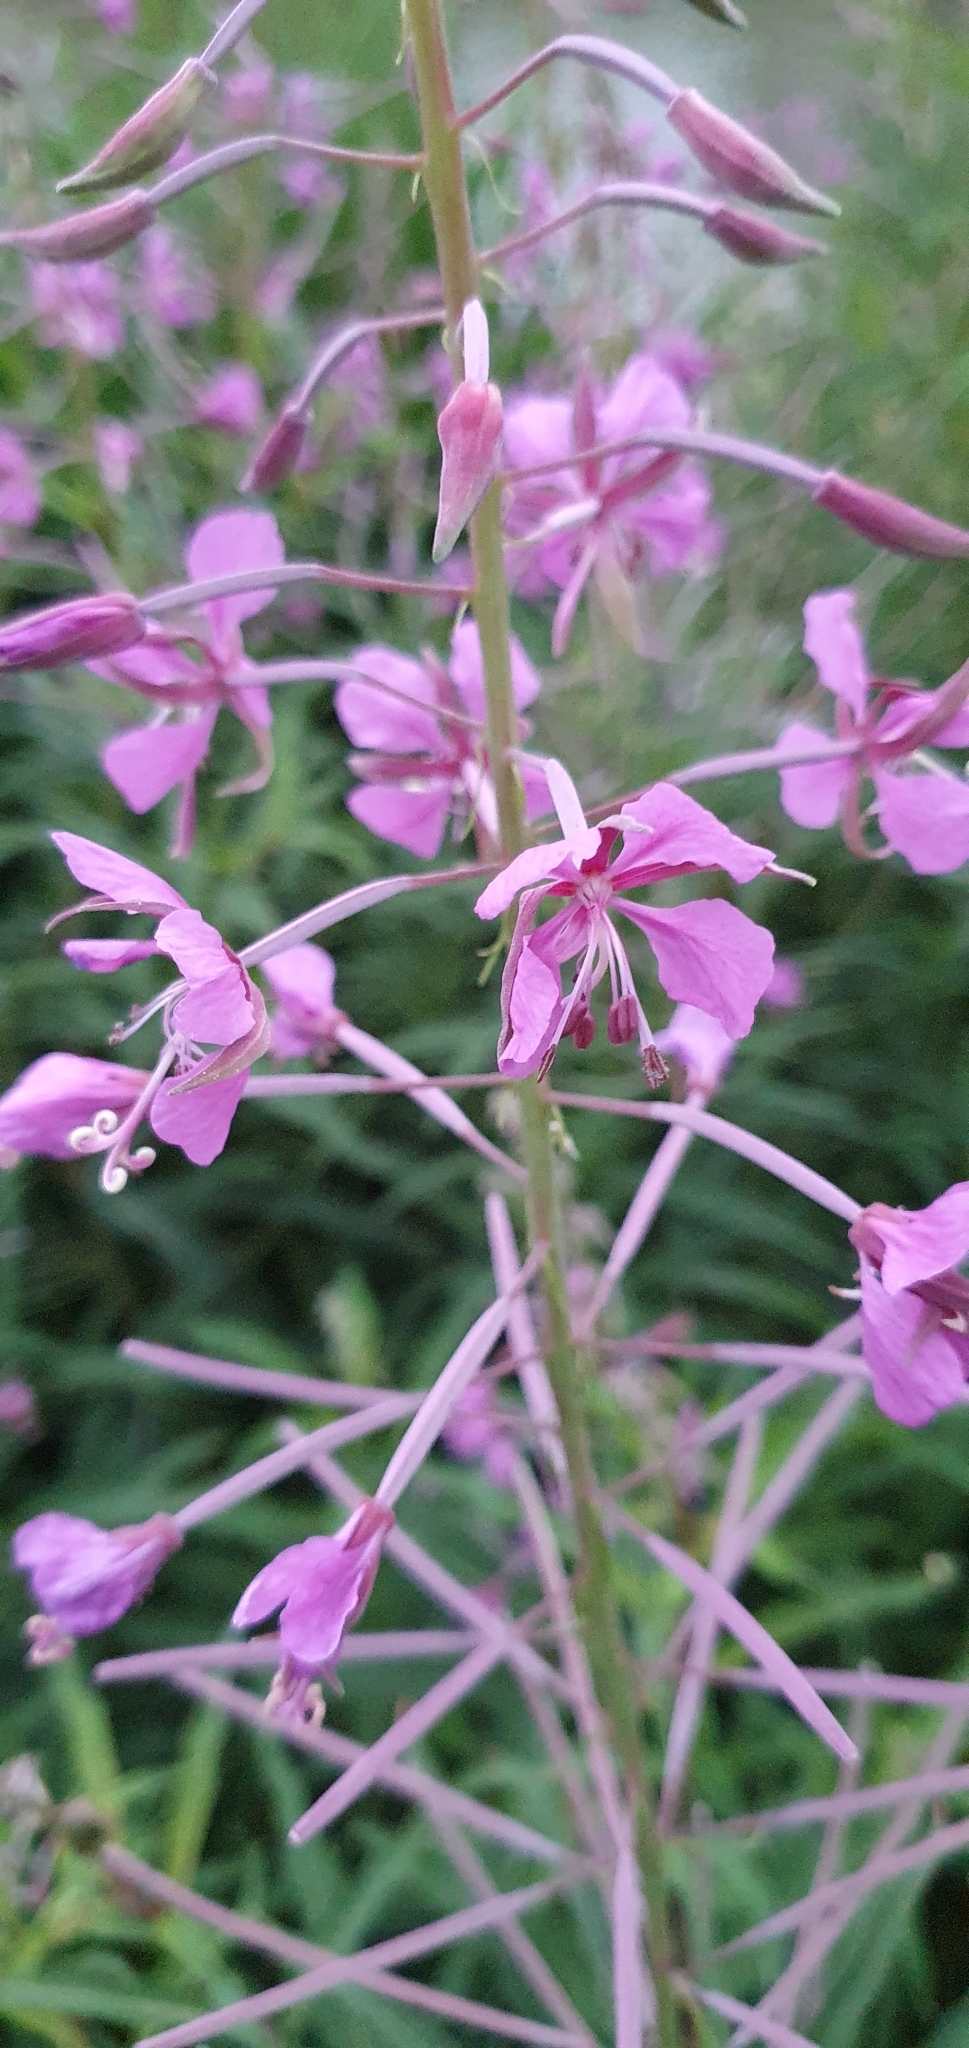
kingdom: Plantae
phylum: Tracheophyta
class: Magnoliopsida
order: Myrtales
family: Onagraceae
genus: Chamaenerion
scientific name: Chamaenerion angustifolium
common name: Fireweed
